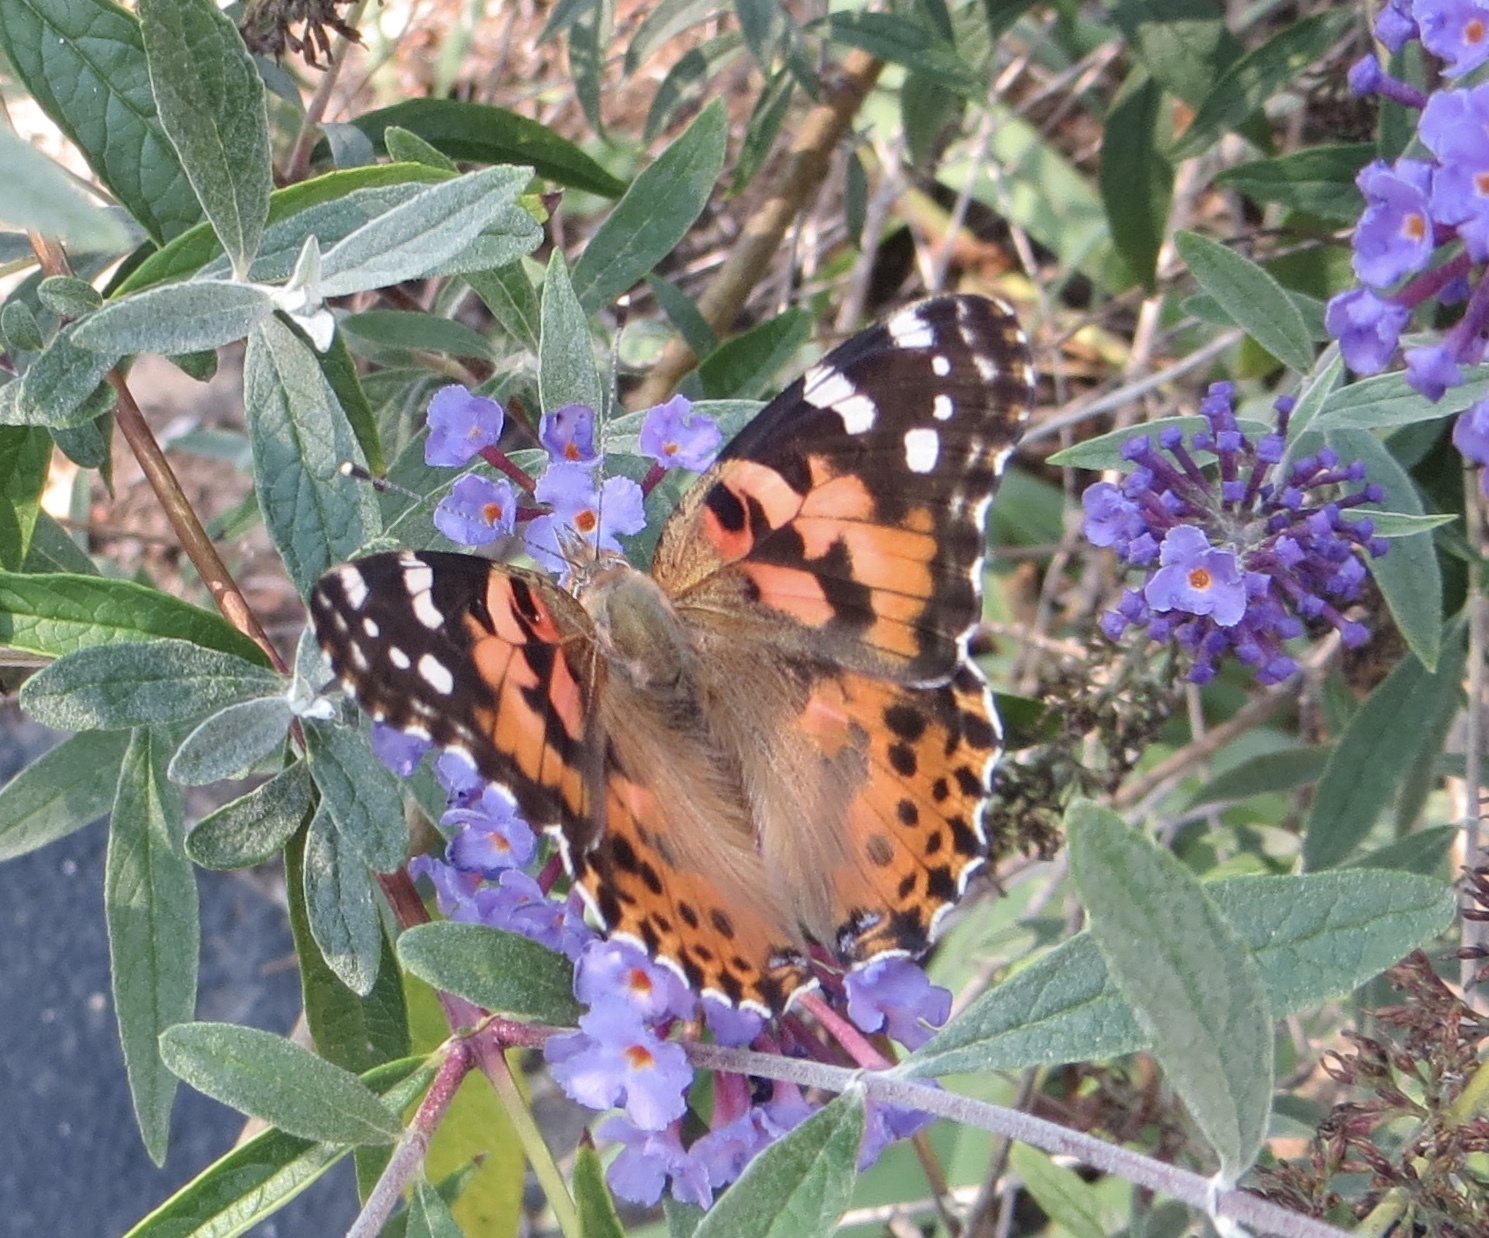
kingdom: Animalia
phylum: Arthropoda
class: Insecta
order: Lepidoptera
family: Nymphalidae
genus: Vanessa
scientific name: Vanessa cardui
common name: Painted lady
